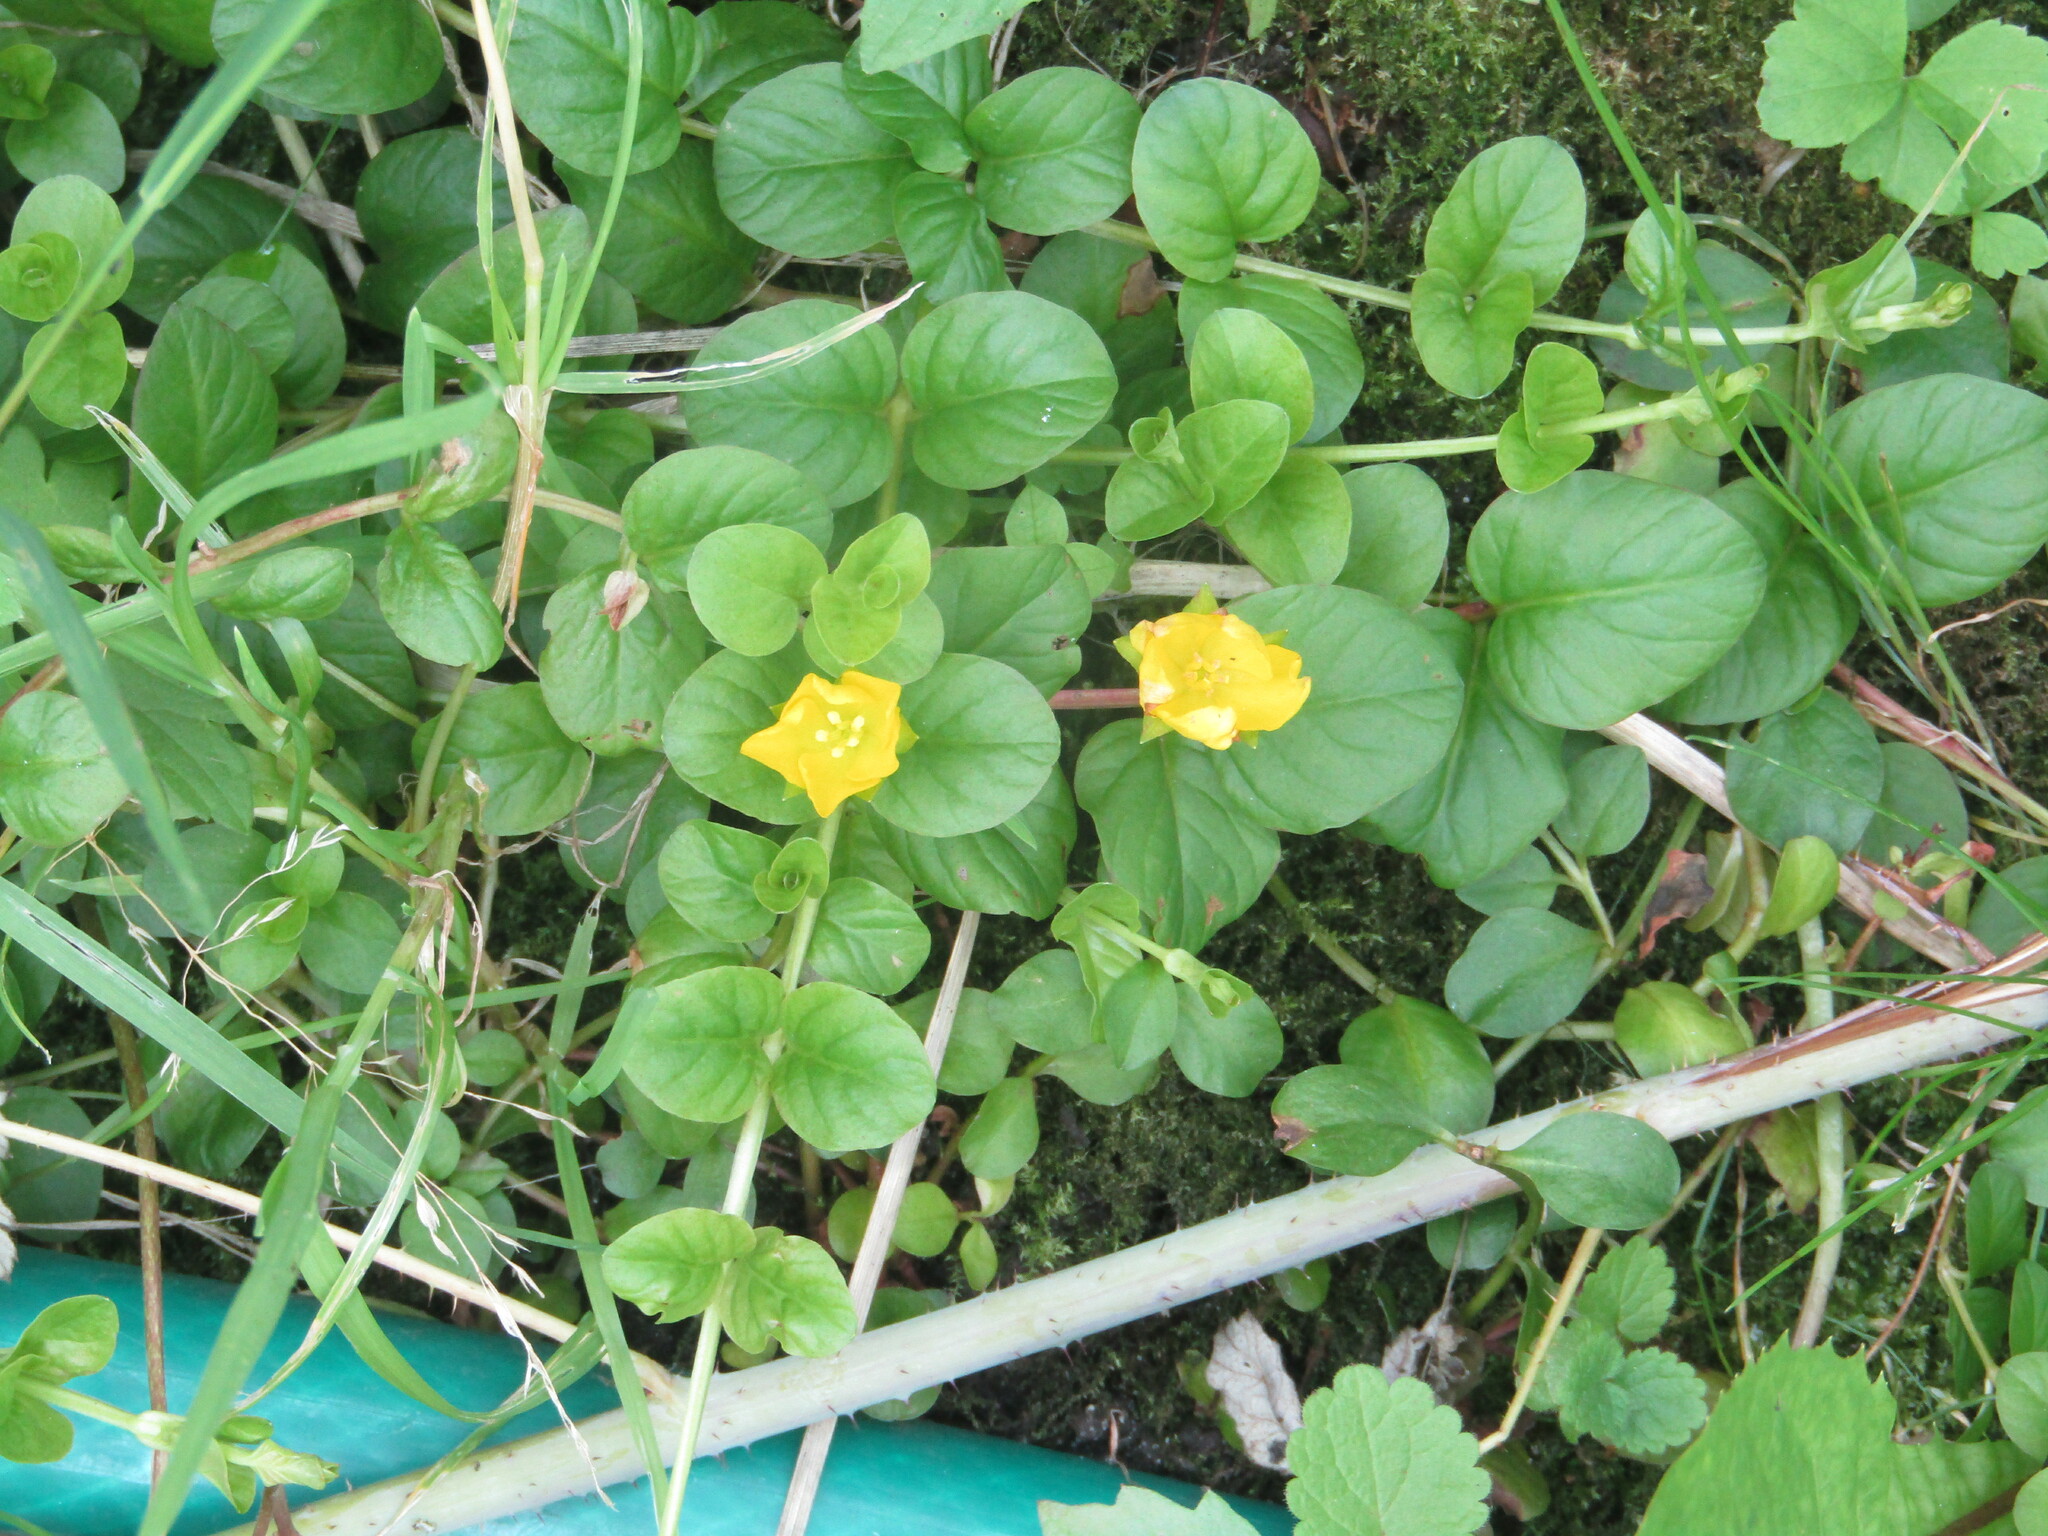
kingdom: Plantae
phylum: Tracheophyta
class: Magnoliopsida
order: Ericales
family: Primulaceae
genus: Lysimachia
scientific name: Lysimachia nummularia
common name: Moneywort
